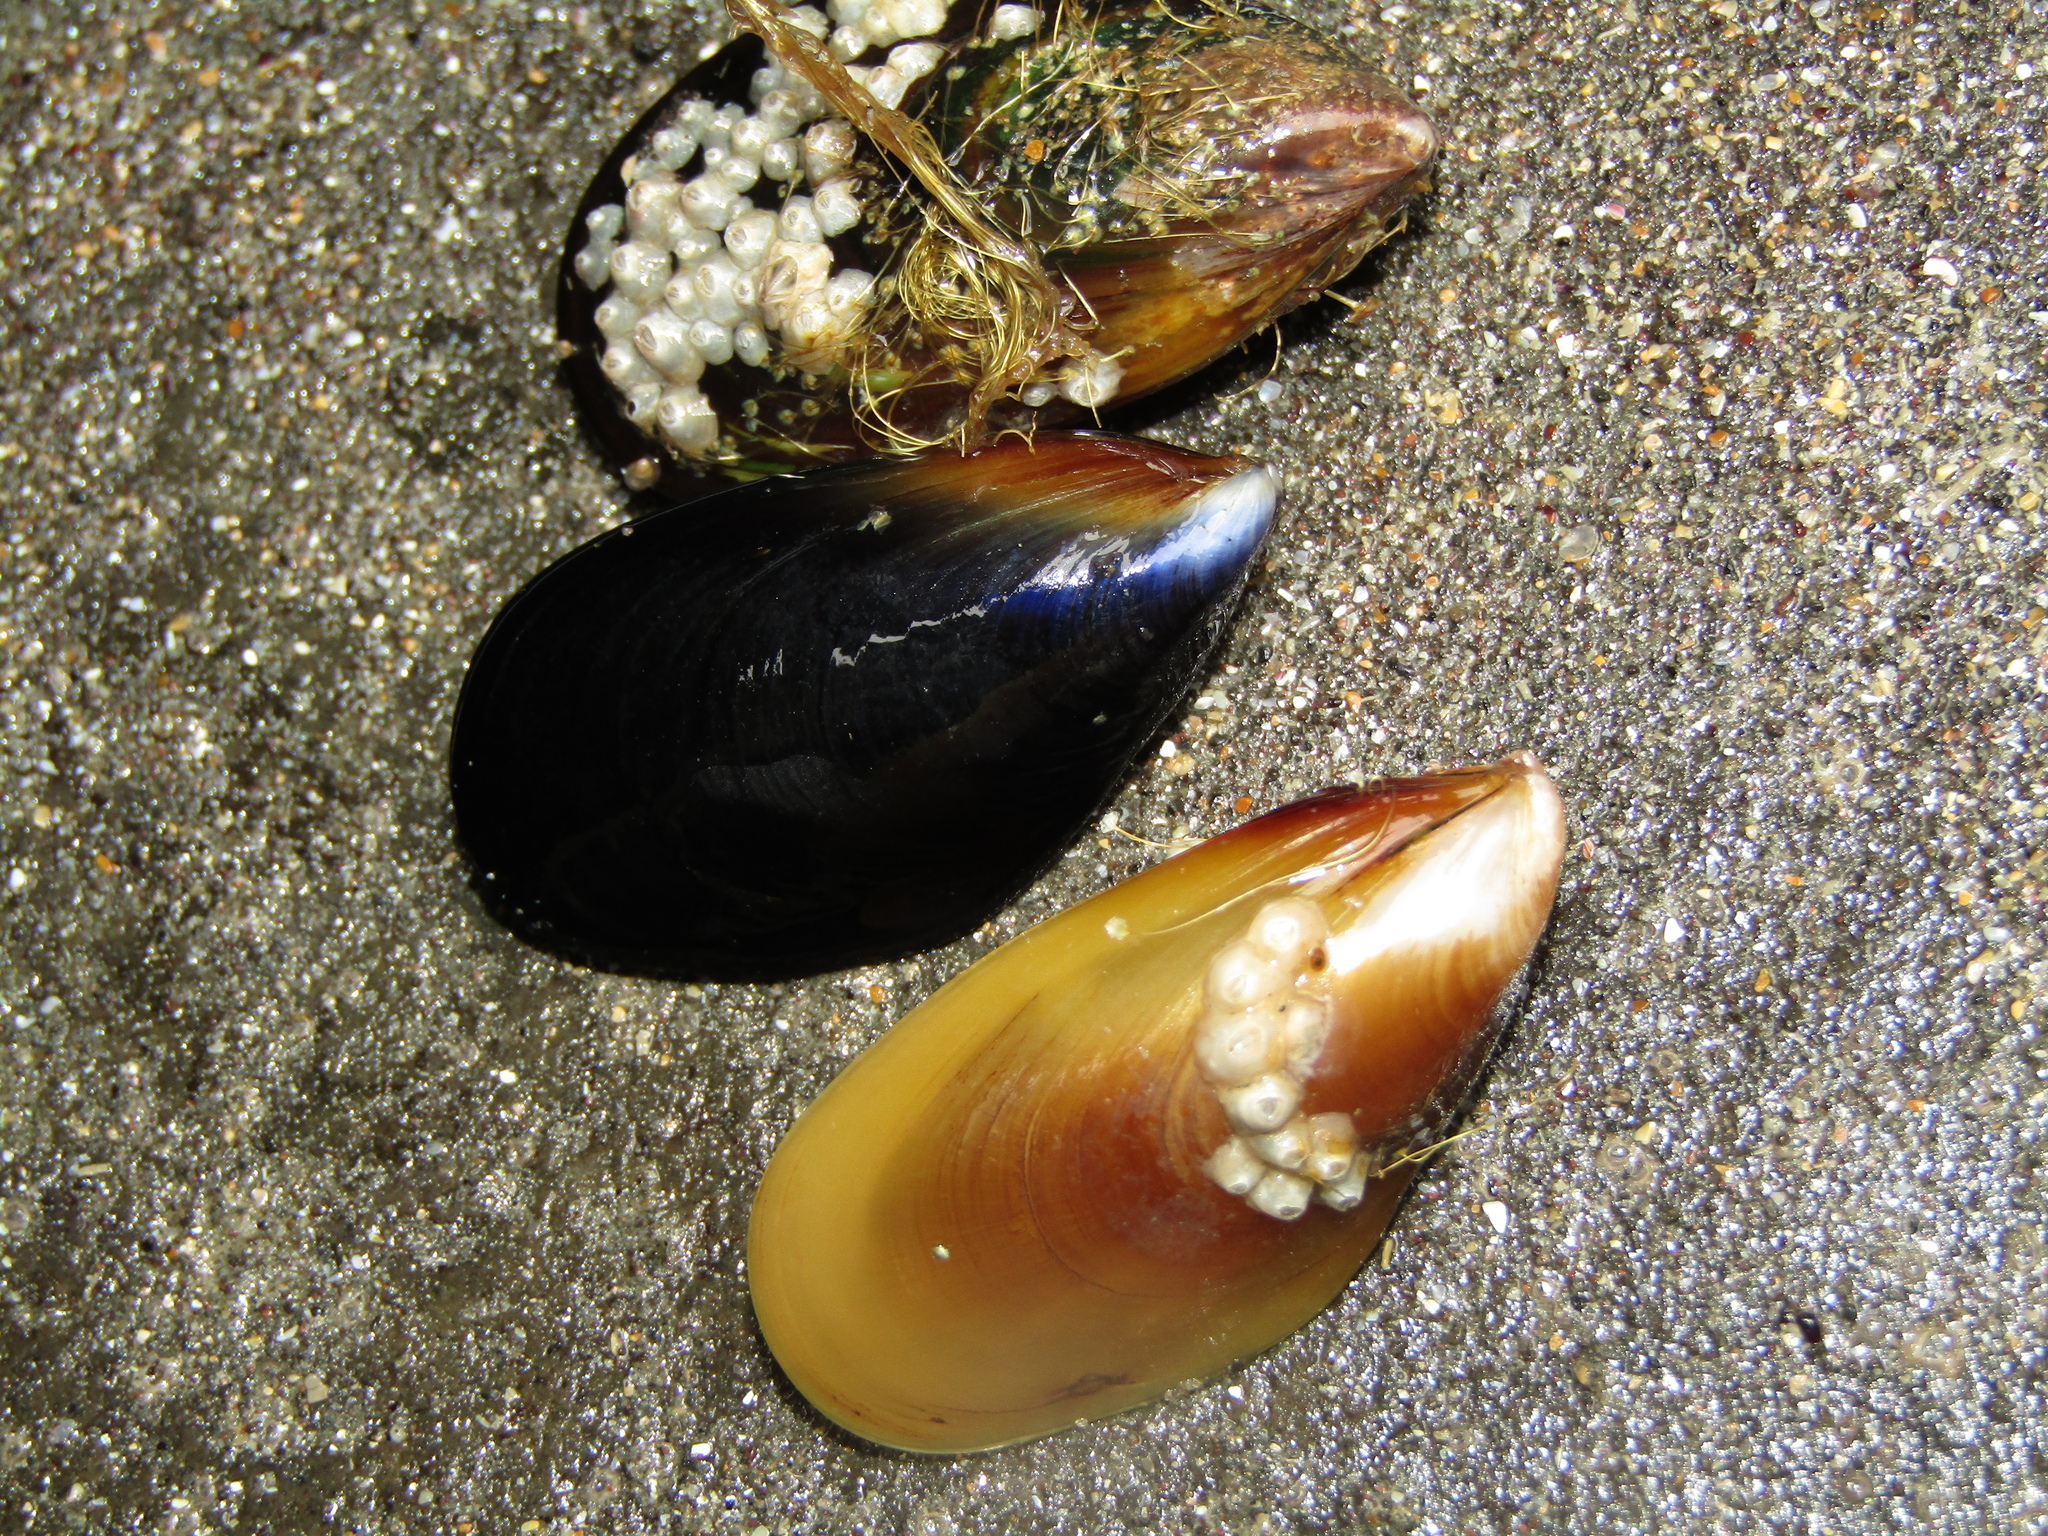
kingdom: Animalia
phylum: Mollusca
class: Bivalvia
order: Mytilida
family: Mytilidae
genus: Mytilus
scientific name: Mytilus planulatus
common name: Australian mussel
